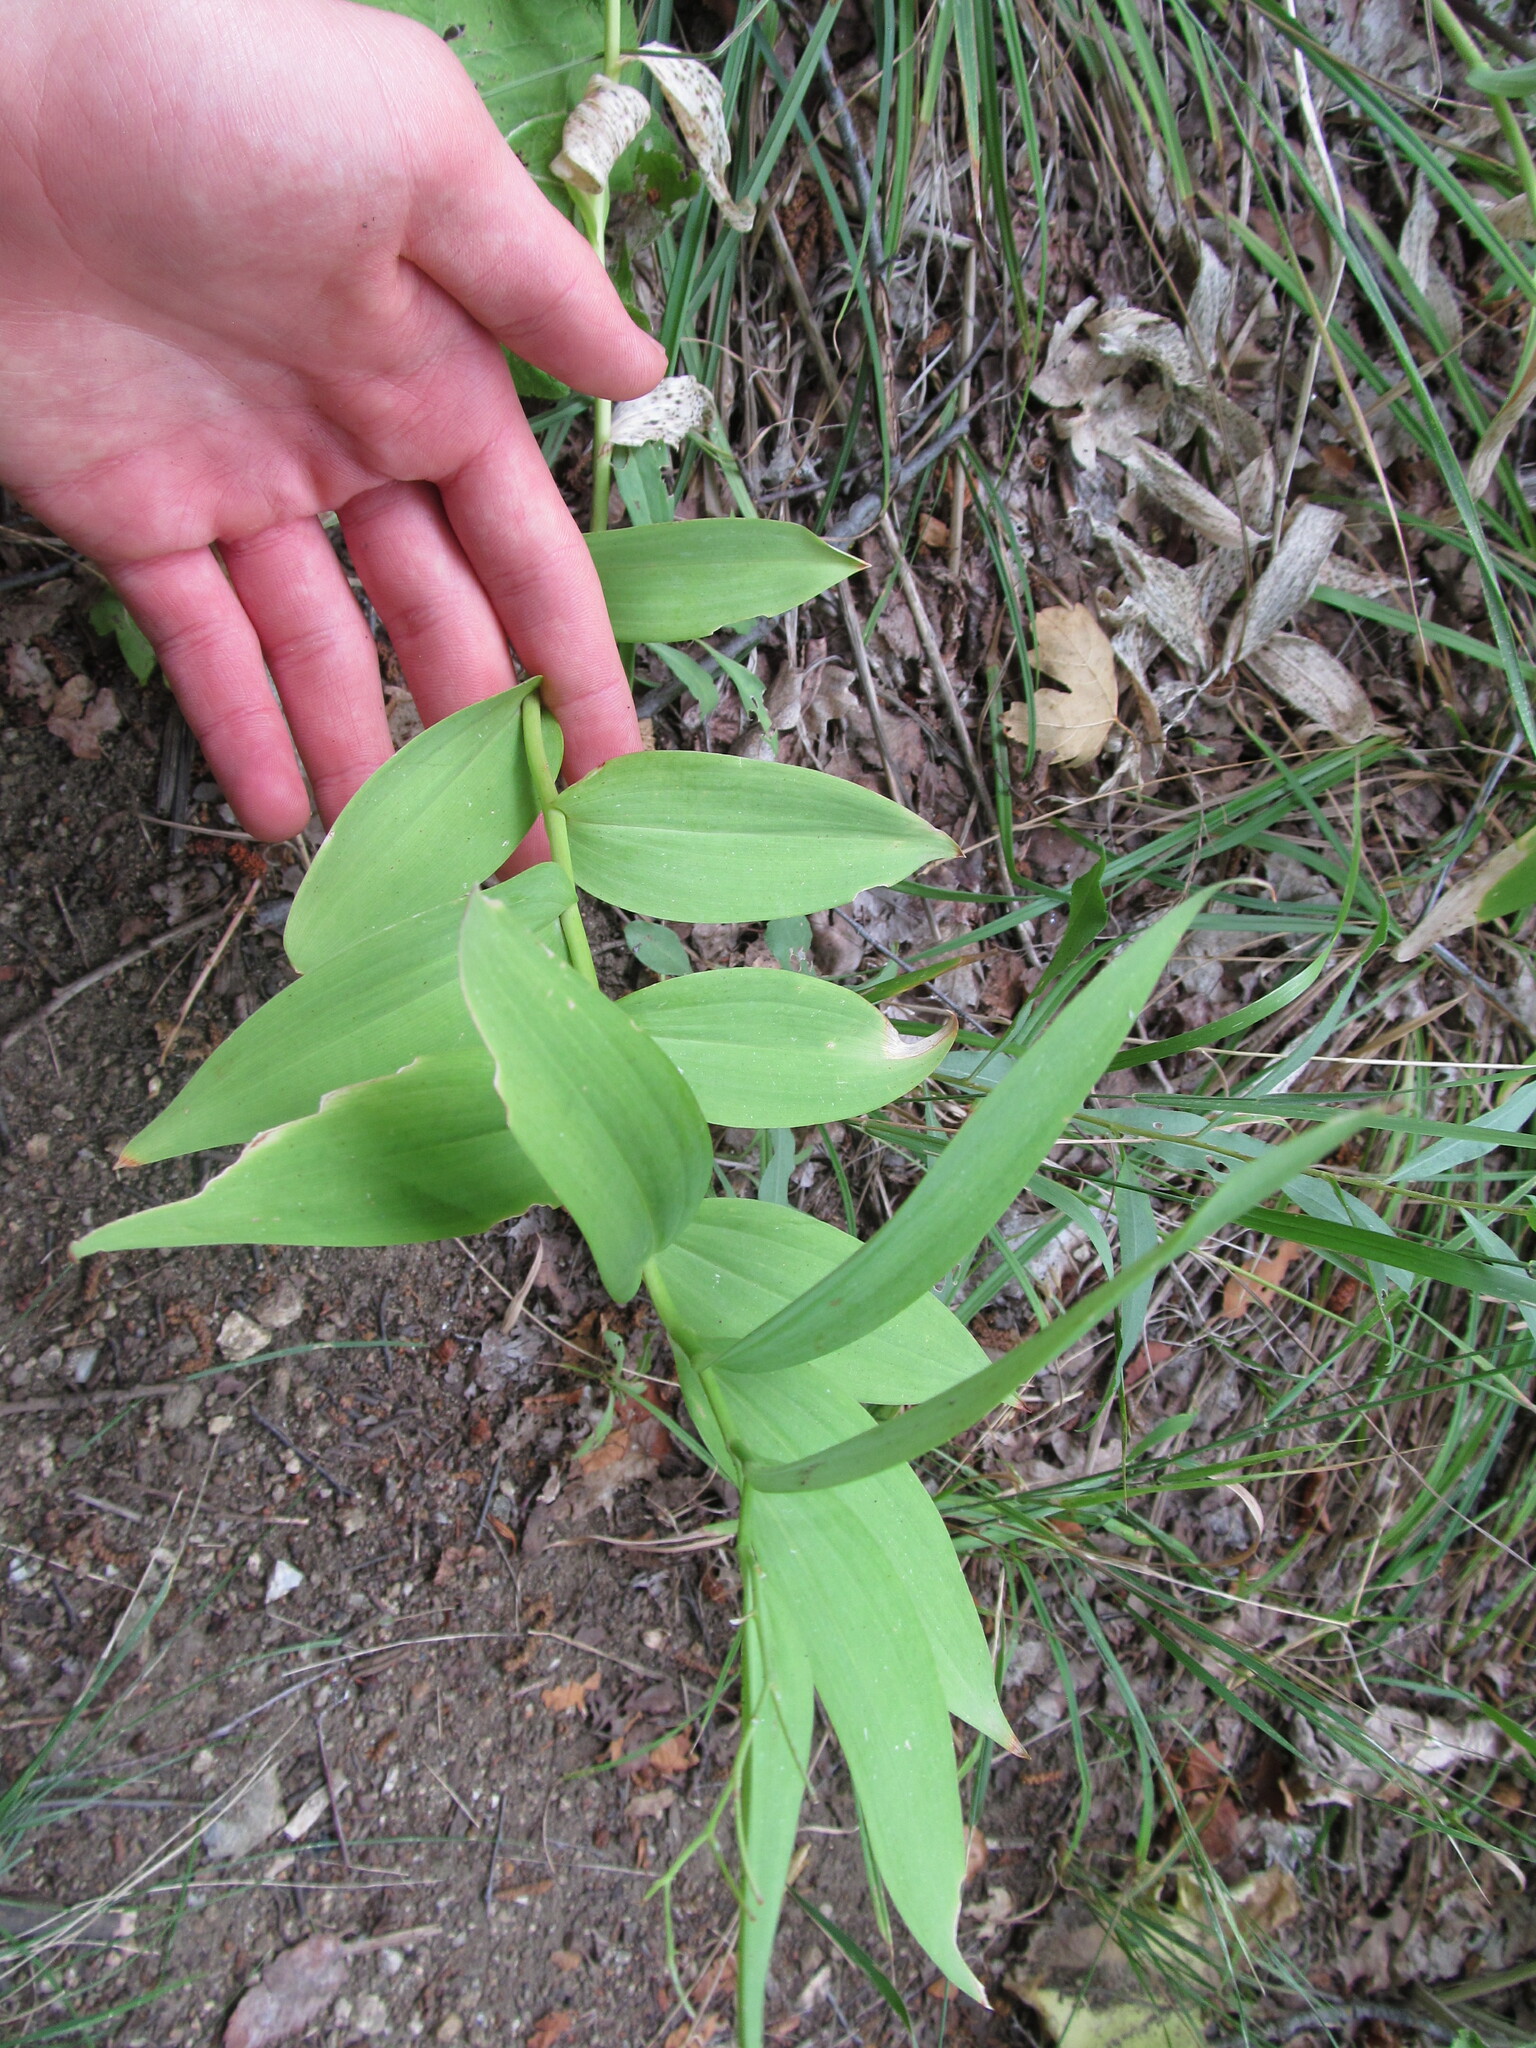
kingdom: Plantae
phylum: Tracheophyta
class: Liliopsida
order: Asparagales
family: Asparagaceae
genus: Maianthemum
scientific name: Maianthemum stellatum
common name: Little false solomon's seal
